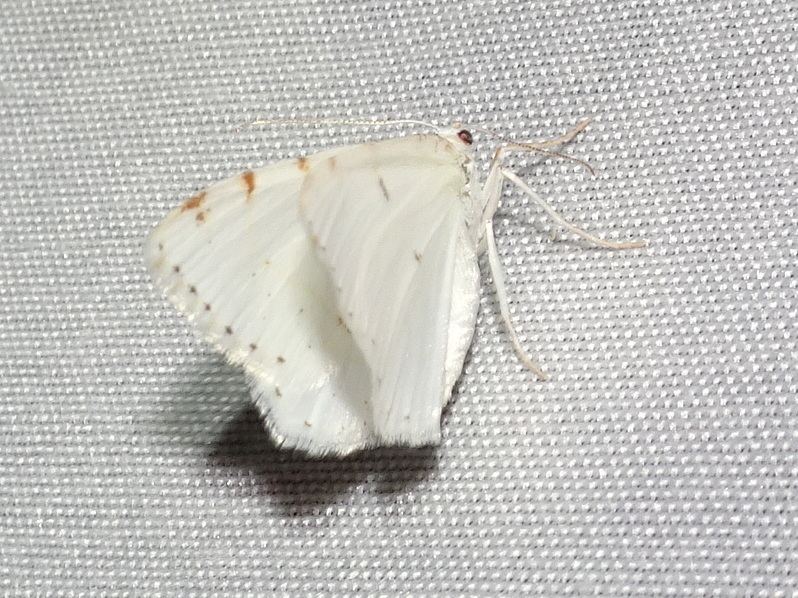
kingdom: Animalia
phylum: Arthropoda
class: Insecta
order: Lepidoptera
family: Geometridae
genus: Macaria
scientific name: Macaria pustularia
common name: Lesser maple spanworm moth
